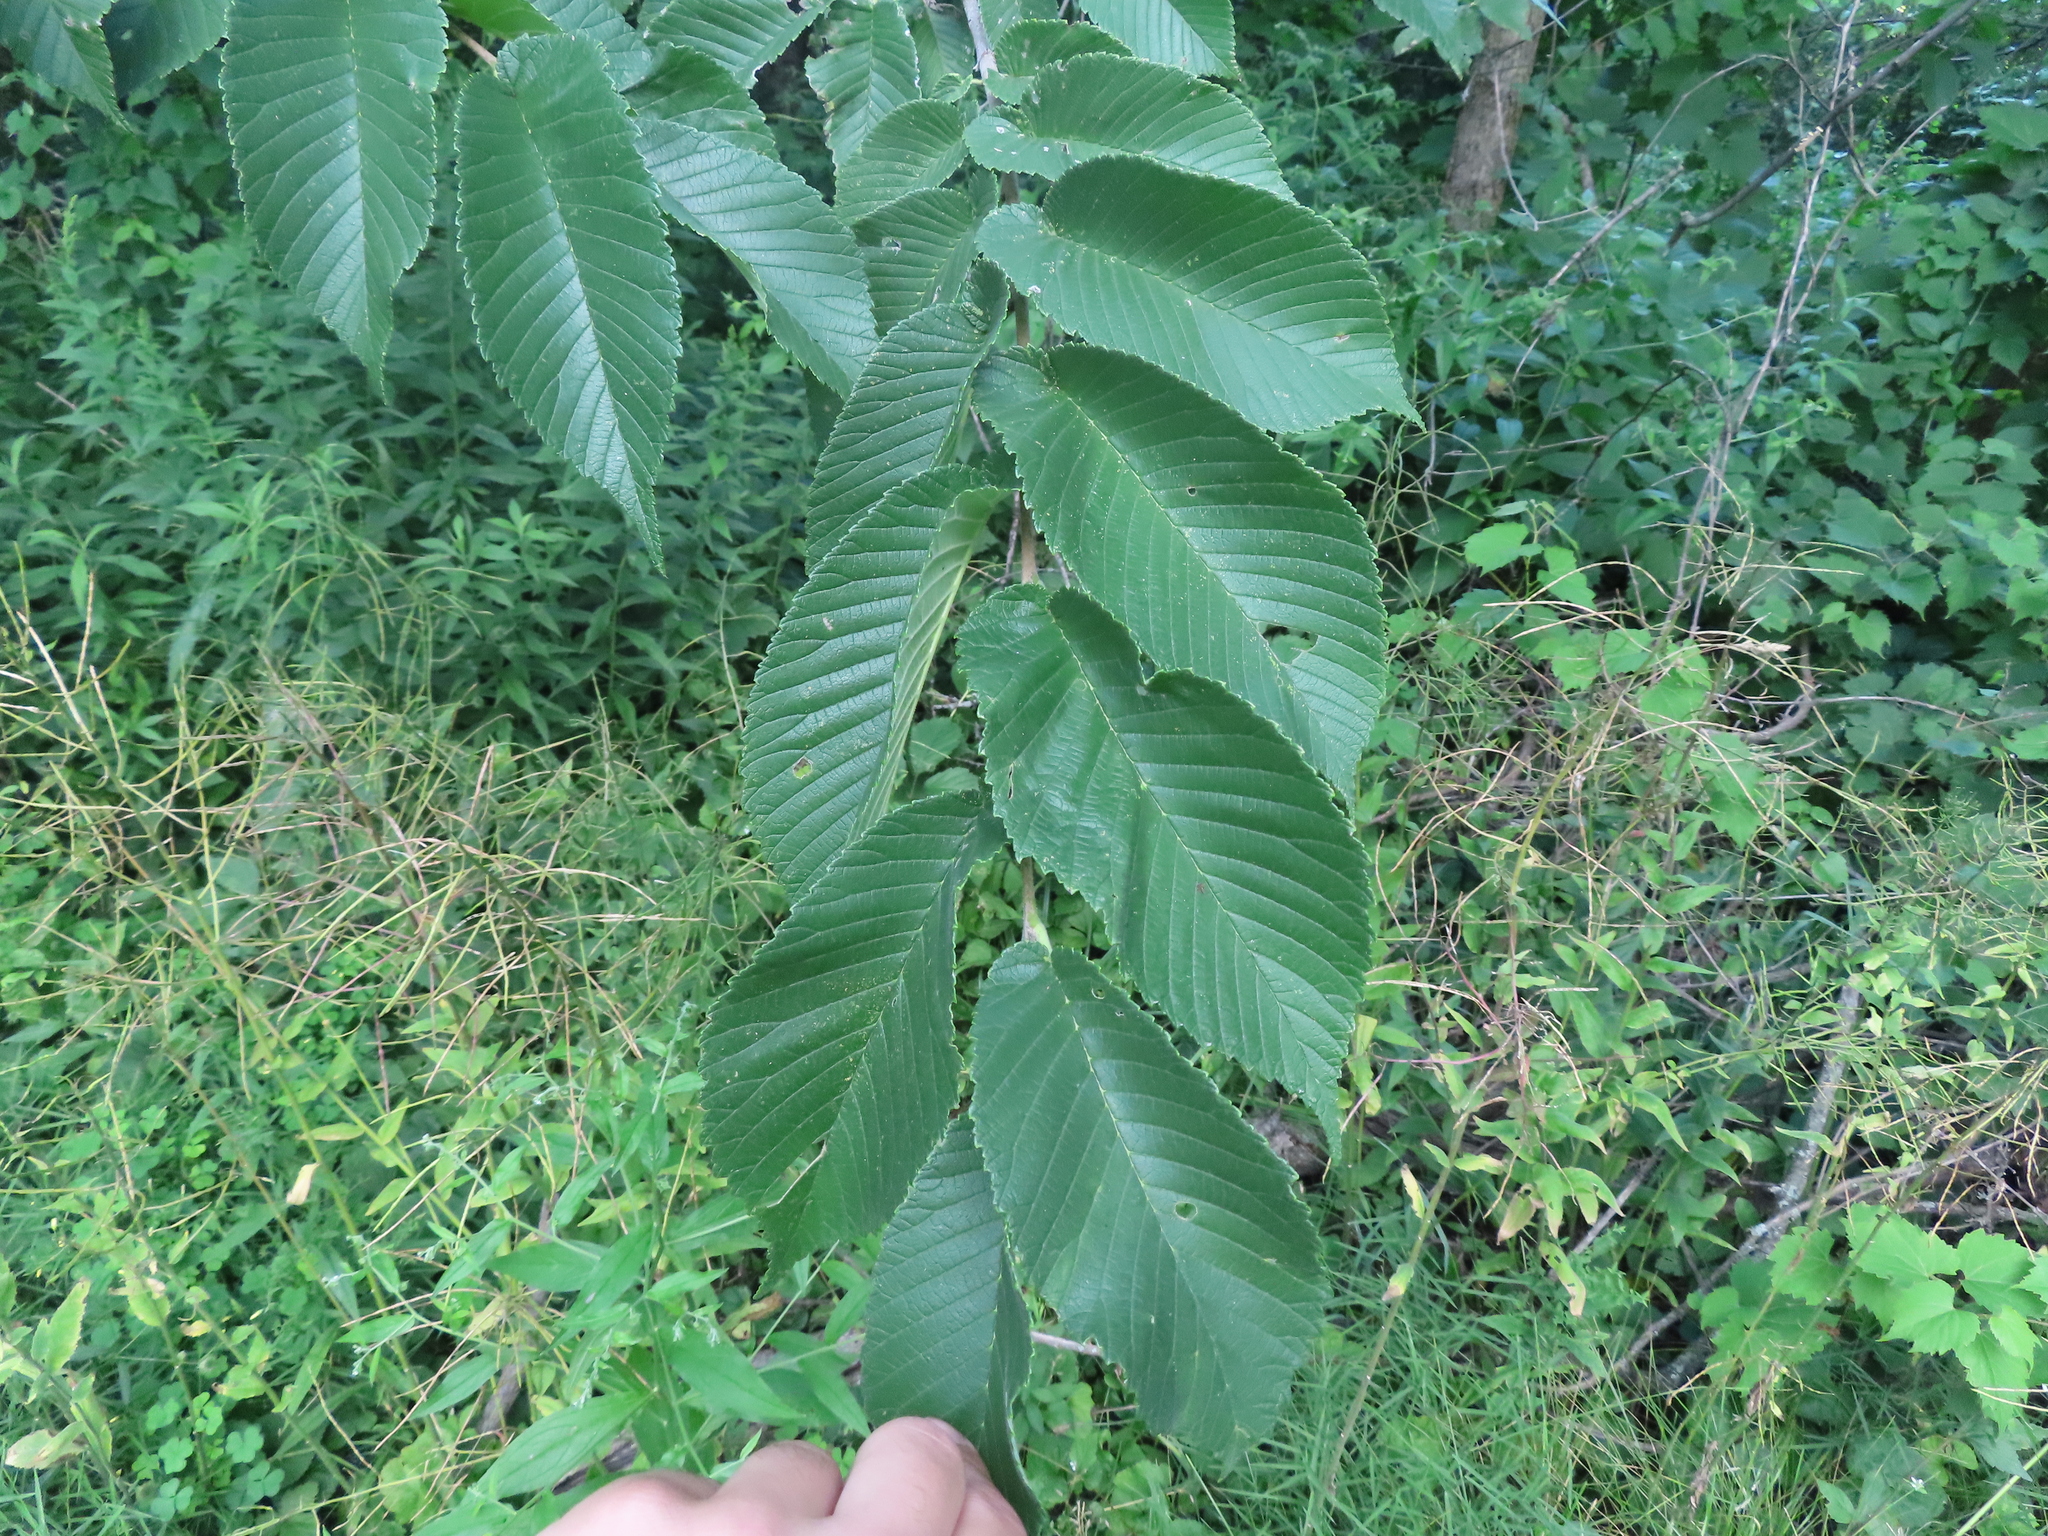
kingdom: Plantae
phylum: Tracheophyta
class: Magnoliopsida
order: Rosales
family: Ulmaceae
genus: Ulmus
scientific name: Ulmus rubra
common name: Slippery elm
